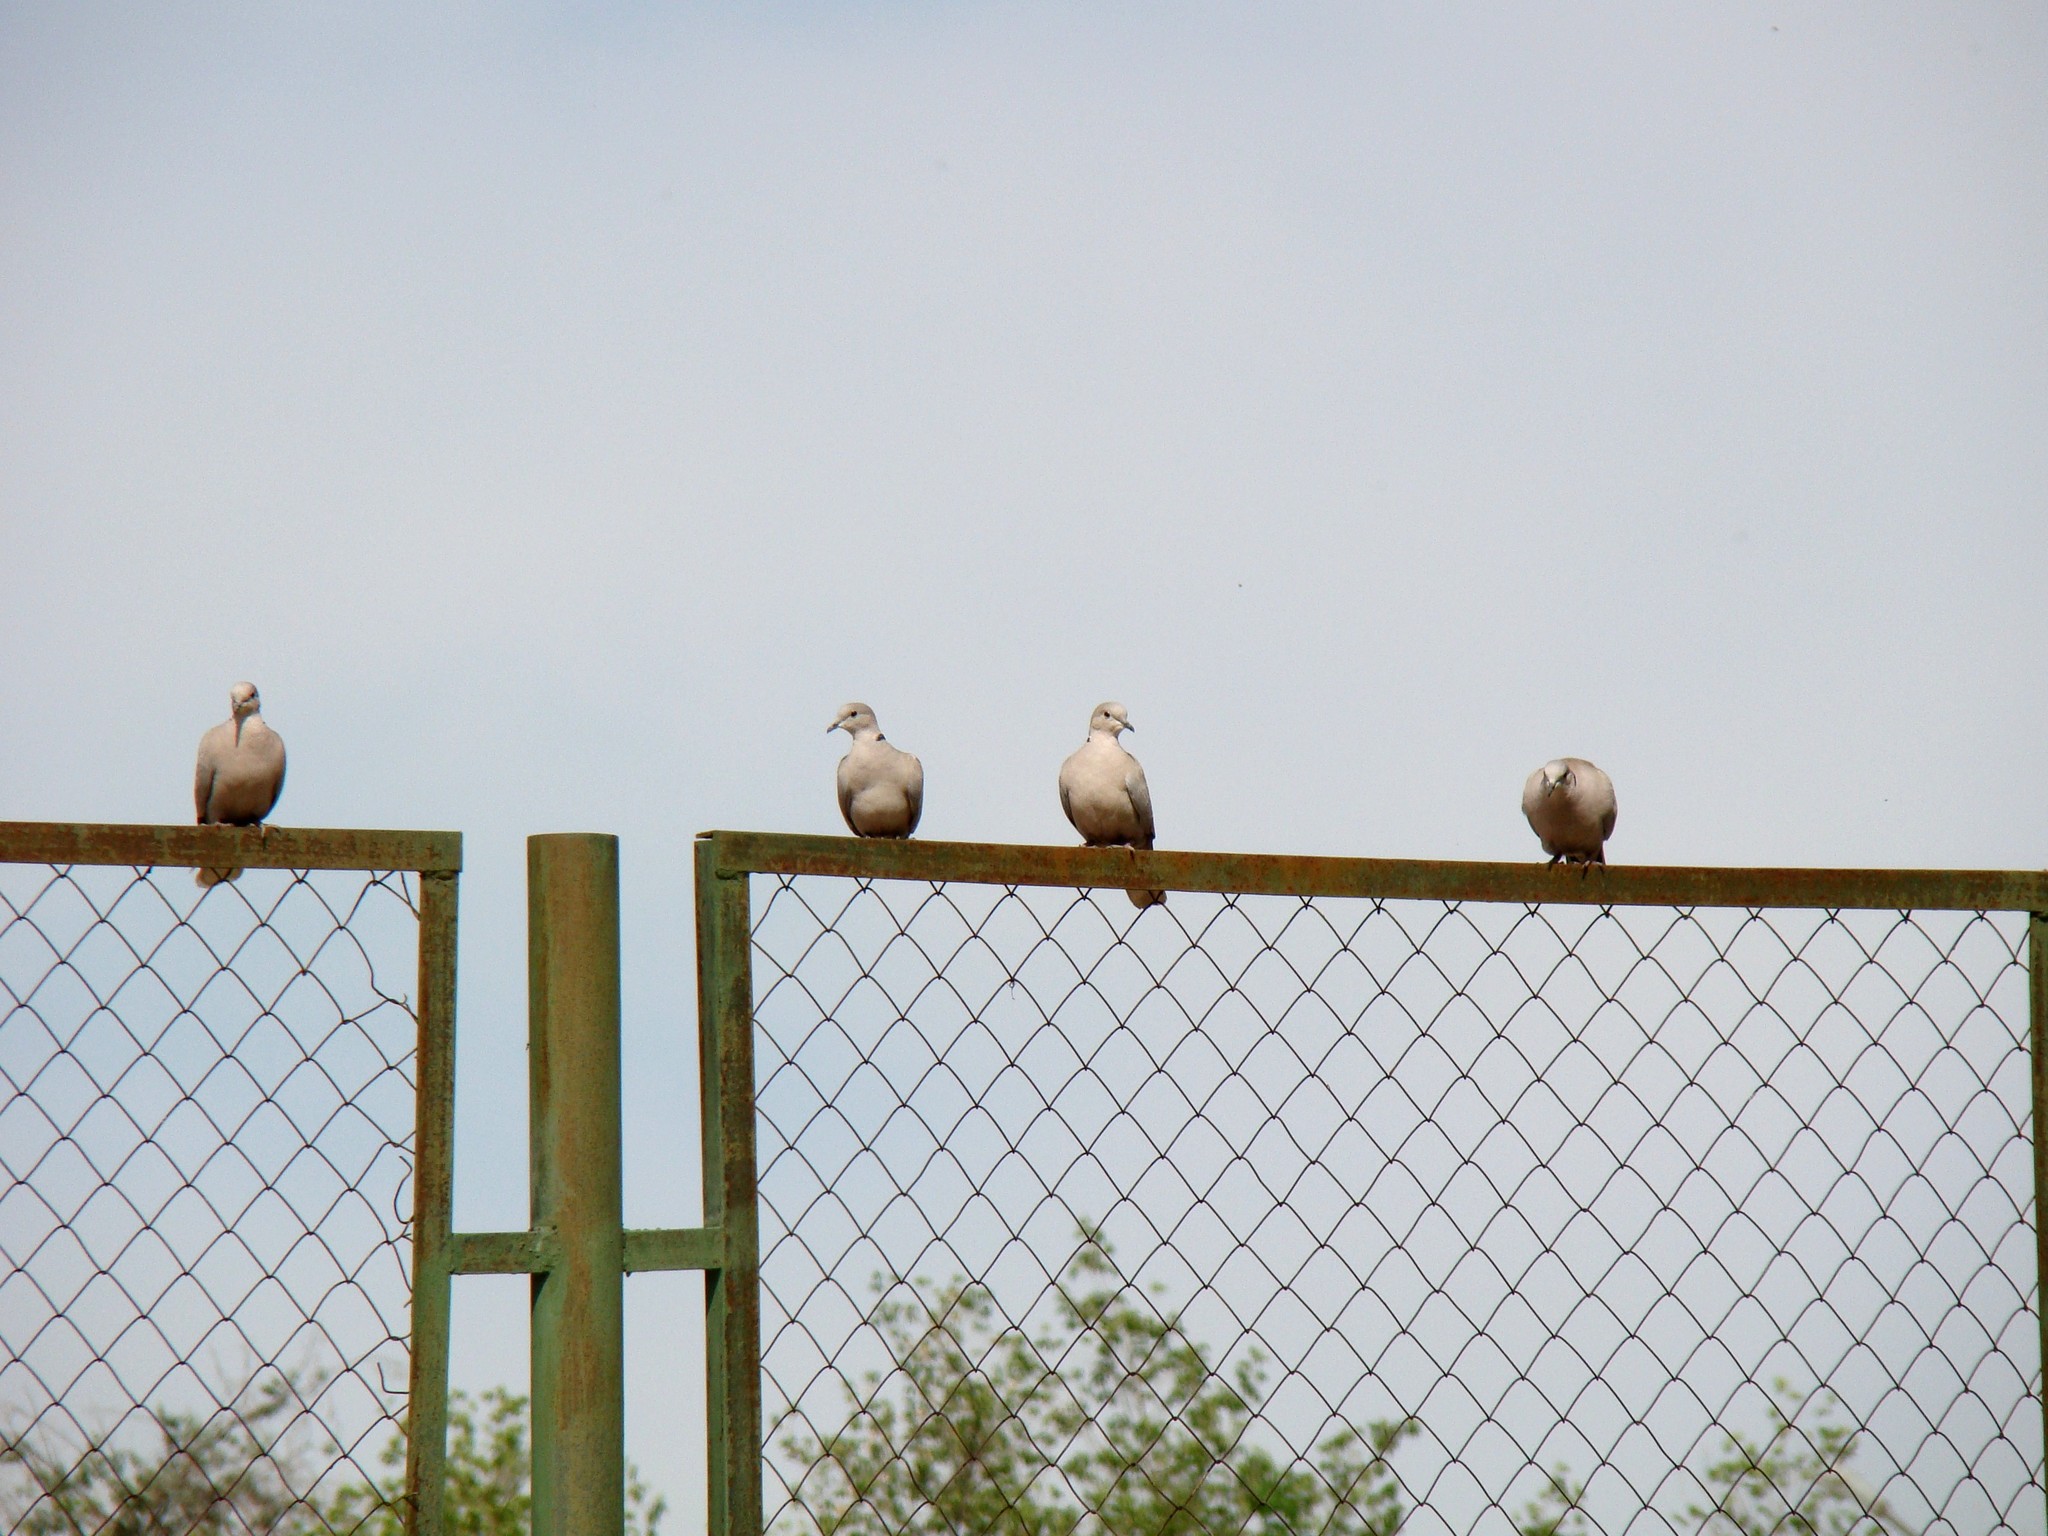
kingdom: Animalia
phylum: Chordata
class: Aves
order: Columbiformes
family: Columbidae
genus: Streptopelia
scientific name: Streptopelia decaocto
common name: Eurasian collared dove
